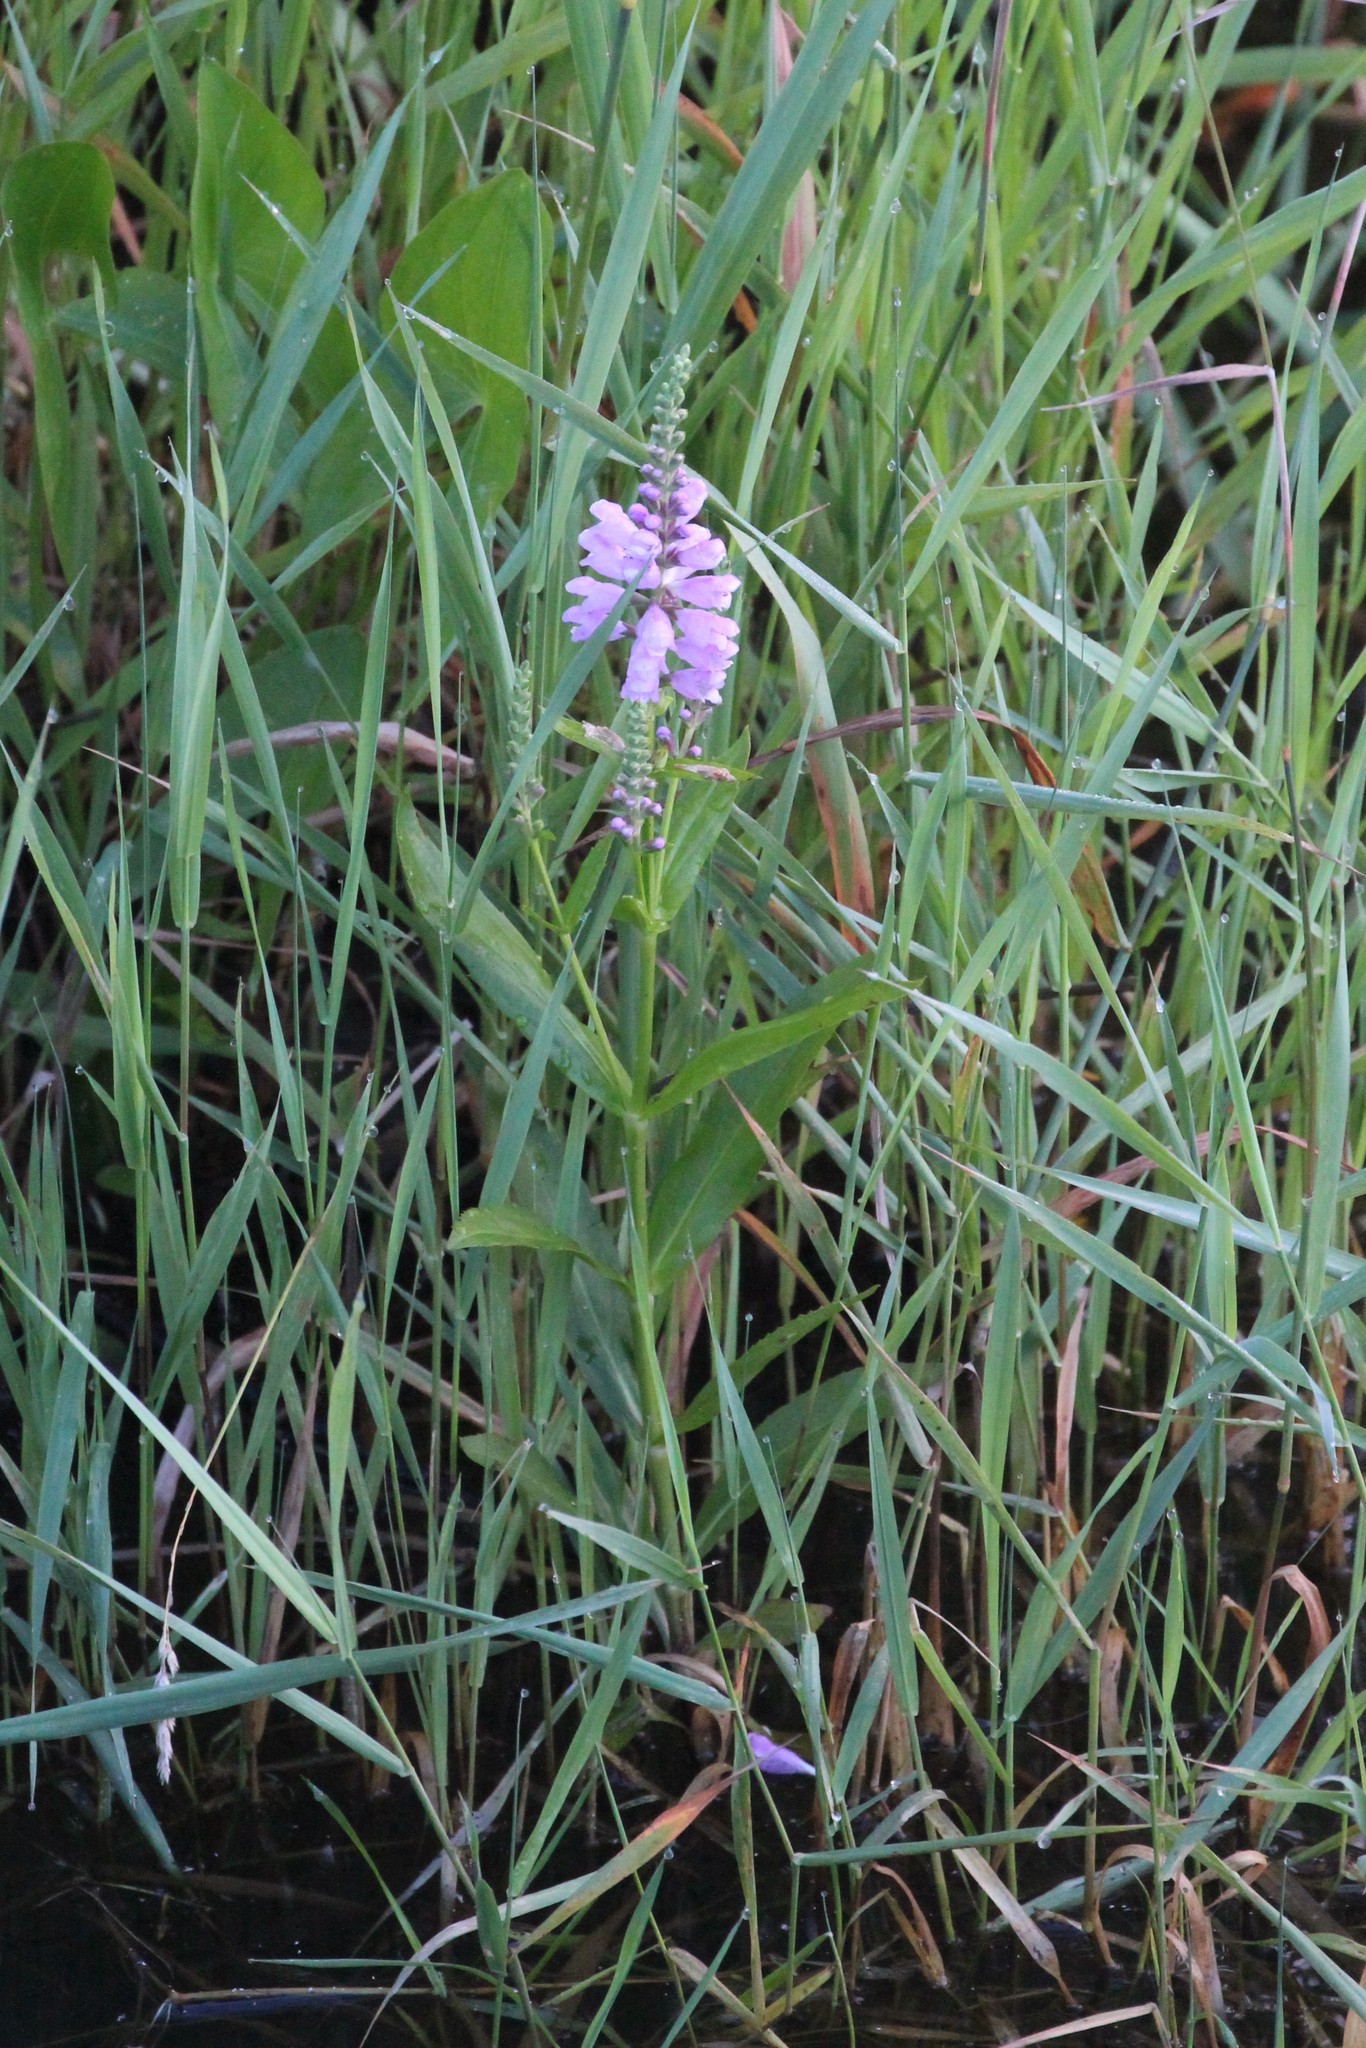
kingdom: Plantae
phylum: Tracheophyta
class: Magnoliopsida
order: Lamiales
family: Lamiaceae
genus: Physostegia
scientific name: Physostegia virginiana
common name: Obedient-plant
